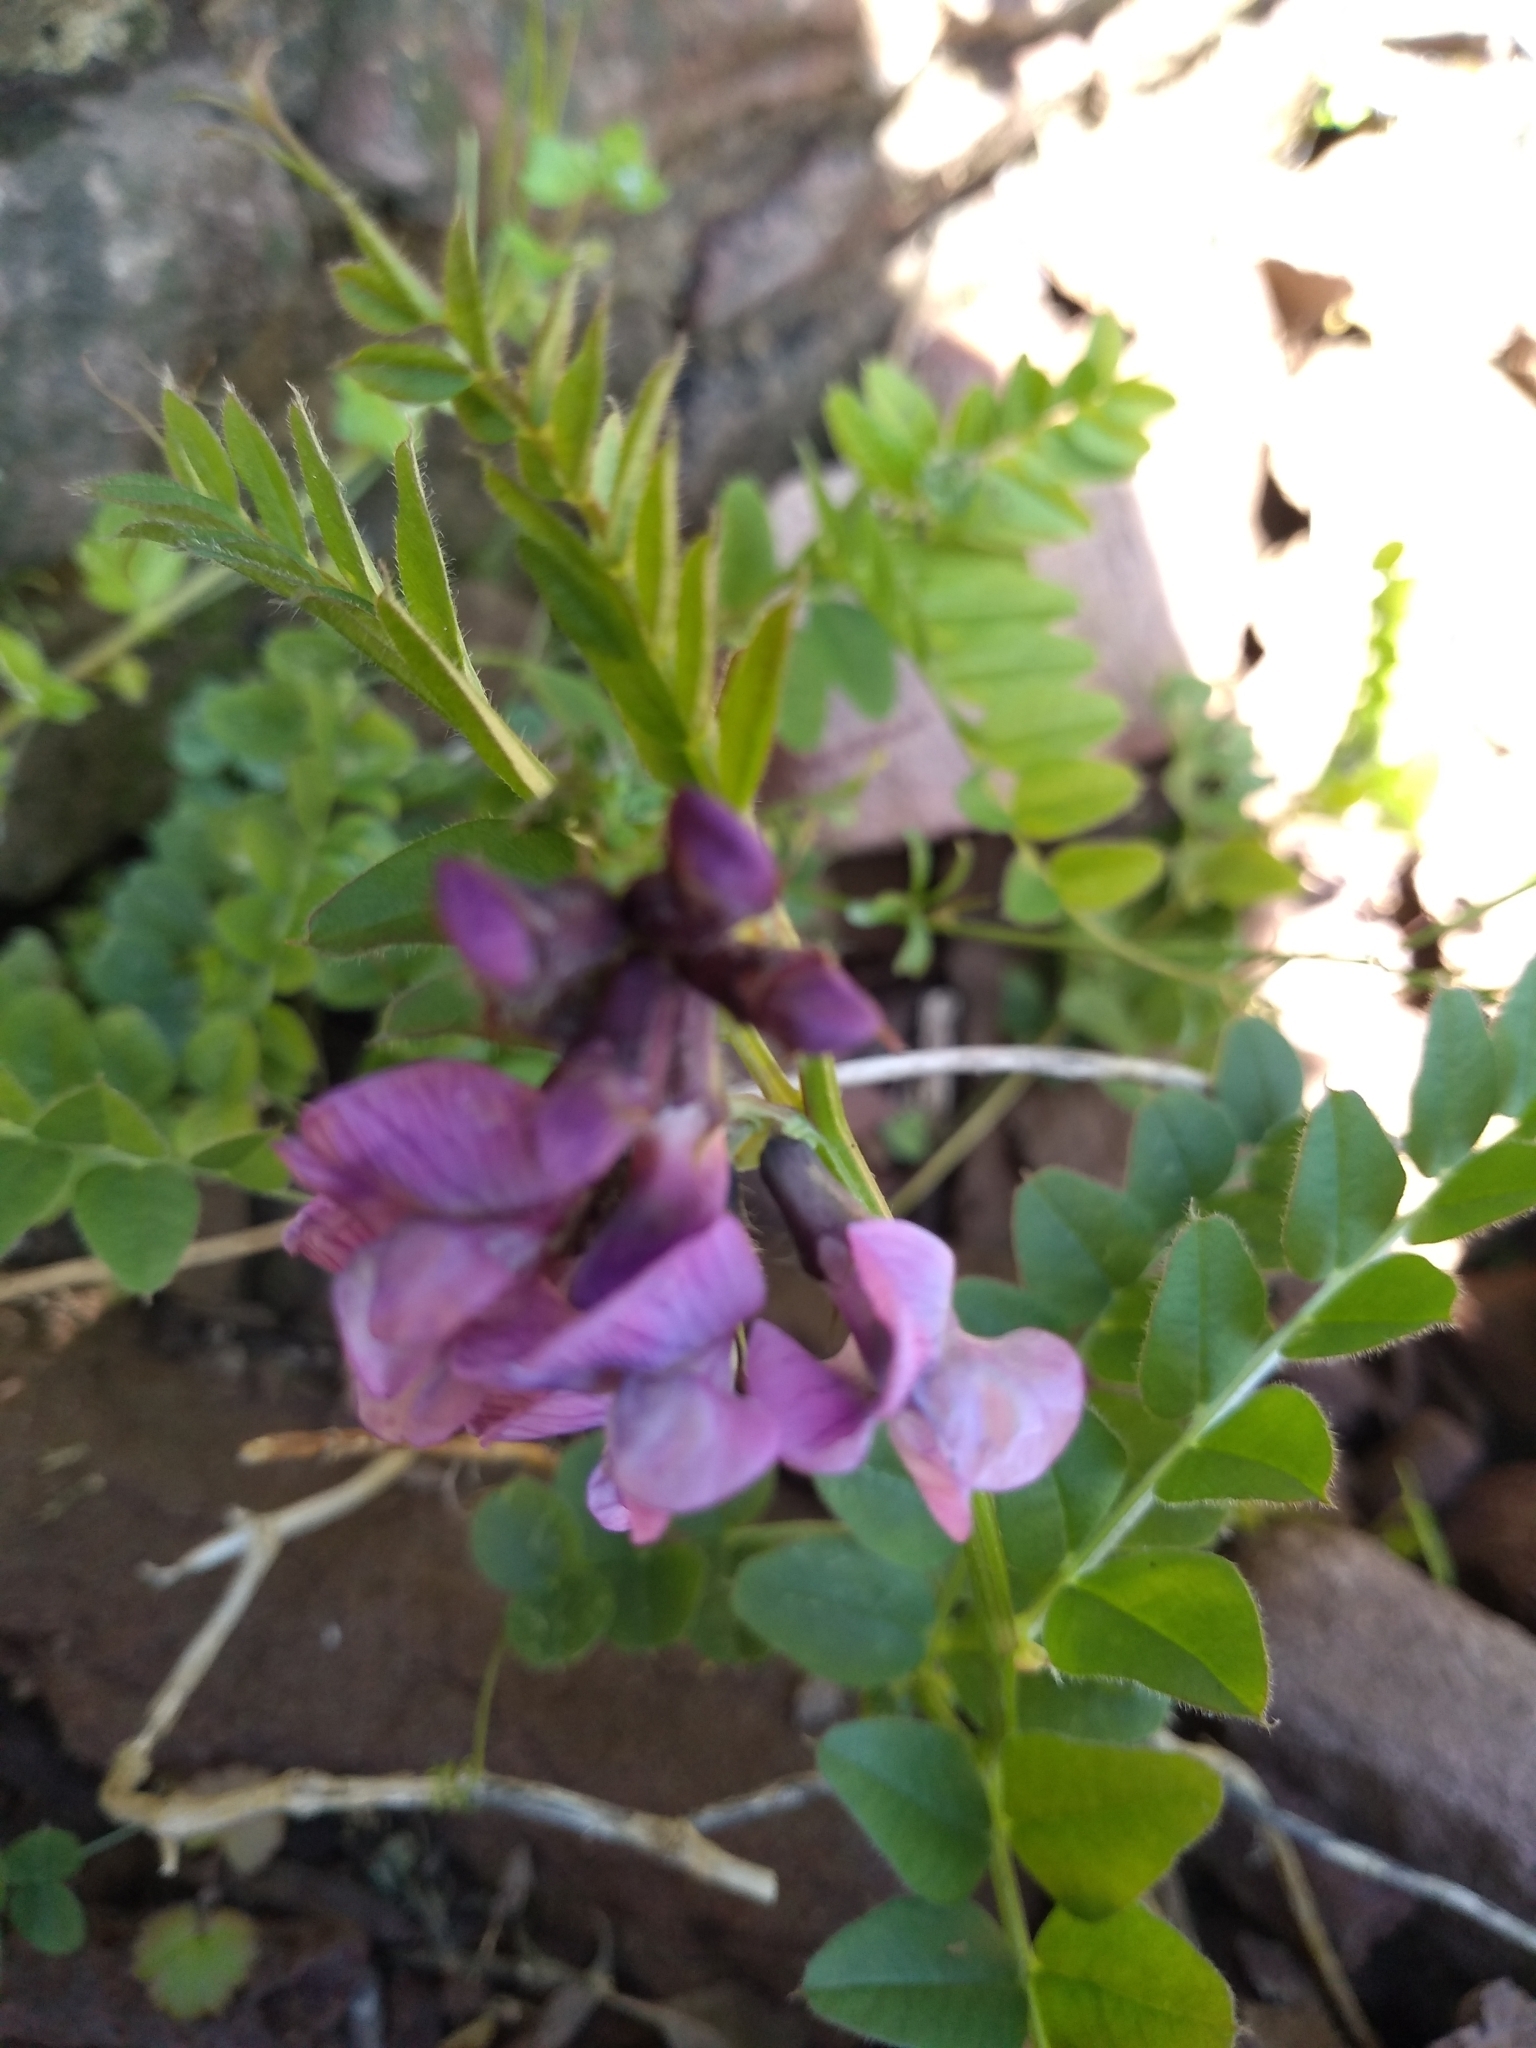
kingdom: Plantae
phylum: Tracheophyta
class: Magnoliopsida
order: Fabales
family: Fabaceae
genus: Vicia
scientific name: Vicia sepium
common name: Bush vetch
